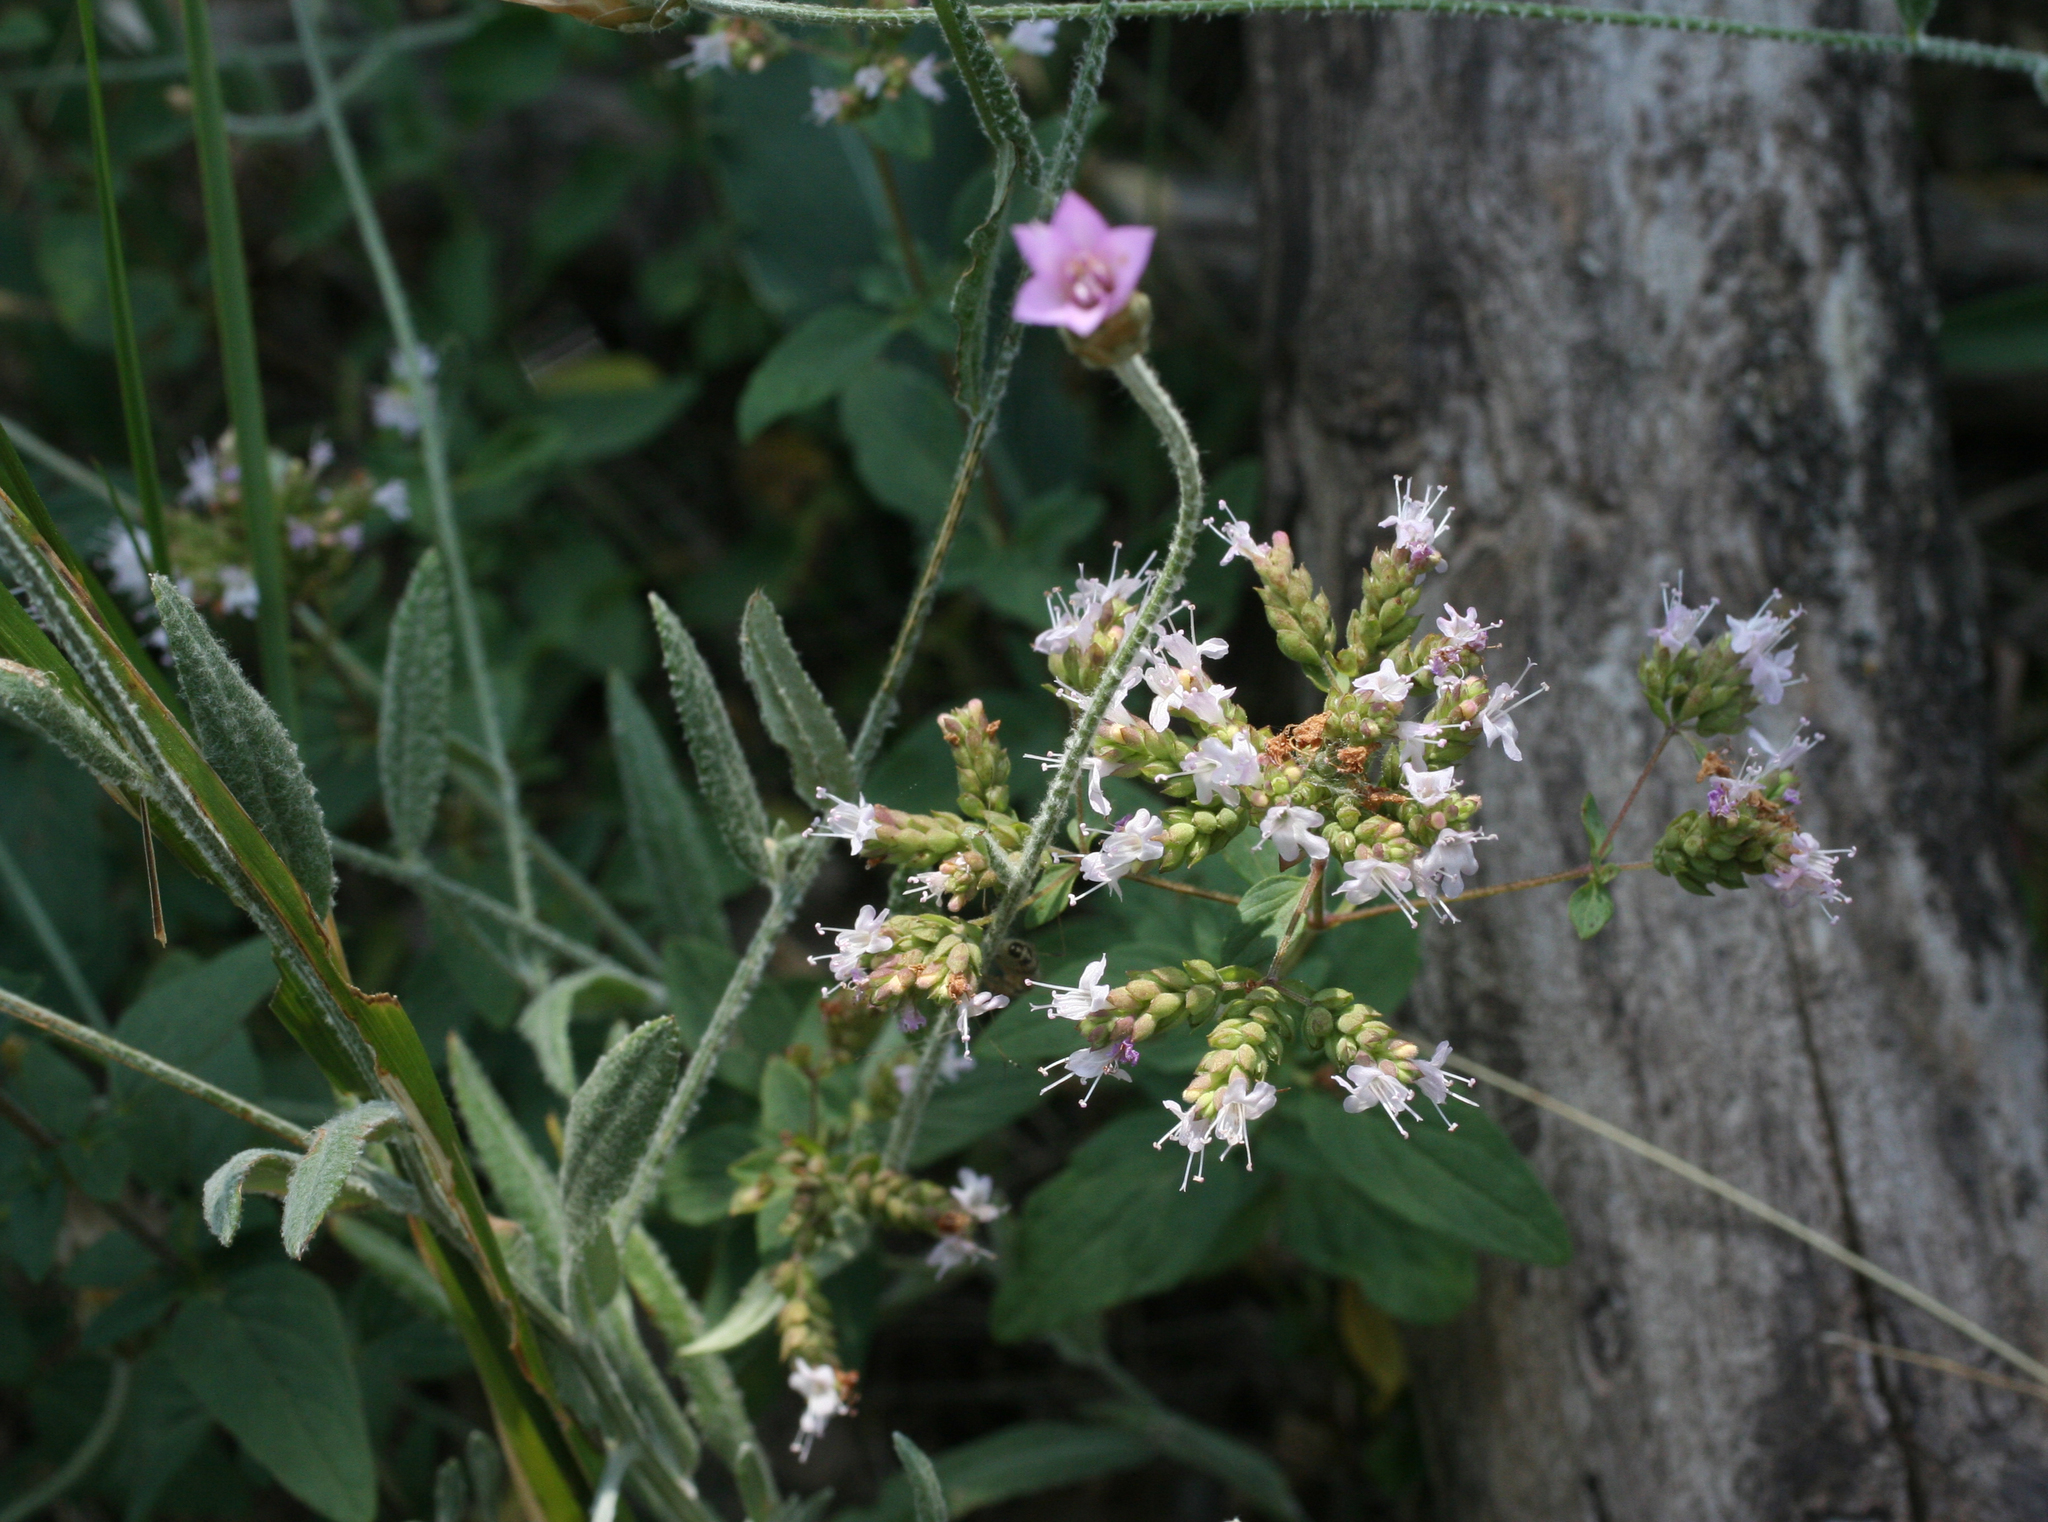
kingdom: Plantae
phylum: Tracheophyta
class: Magnoliopsida
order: Lamiales
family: Lamiaceae
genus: Origanum
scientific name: Origanum vulgare
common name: Wild marjoram
